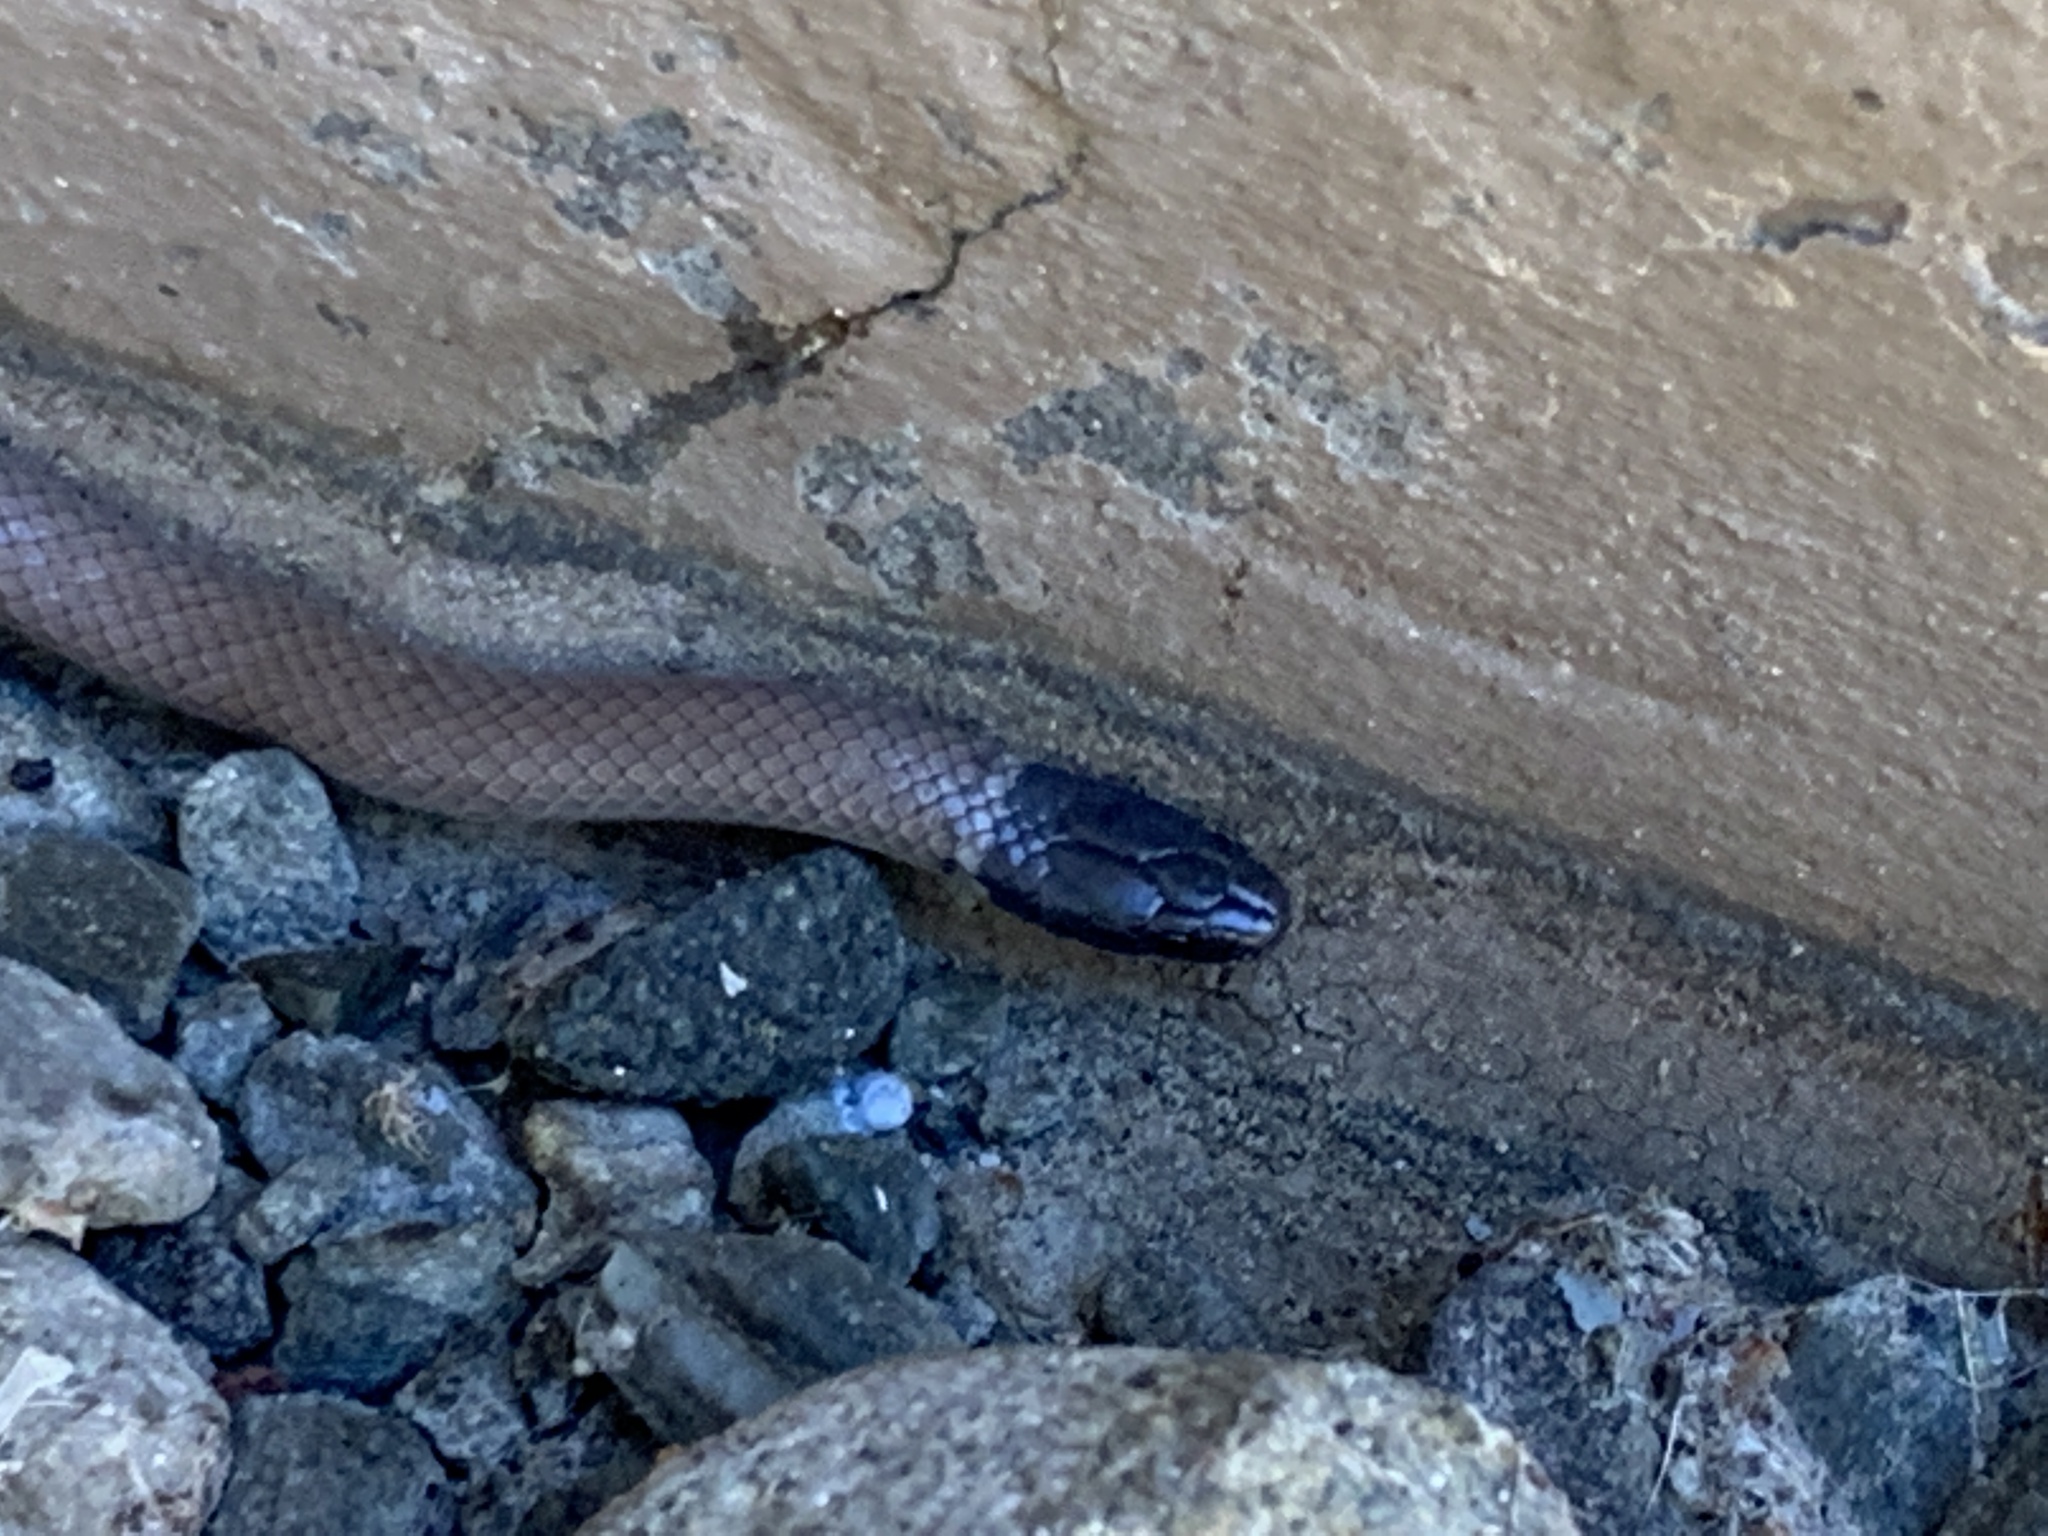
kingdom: Animalia
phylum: Chordata
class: Squamata
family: Colubridae
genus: Tantilla
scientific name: Tantilla planiceps
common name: Western blackhead snake
